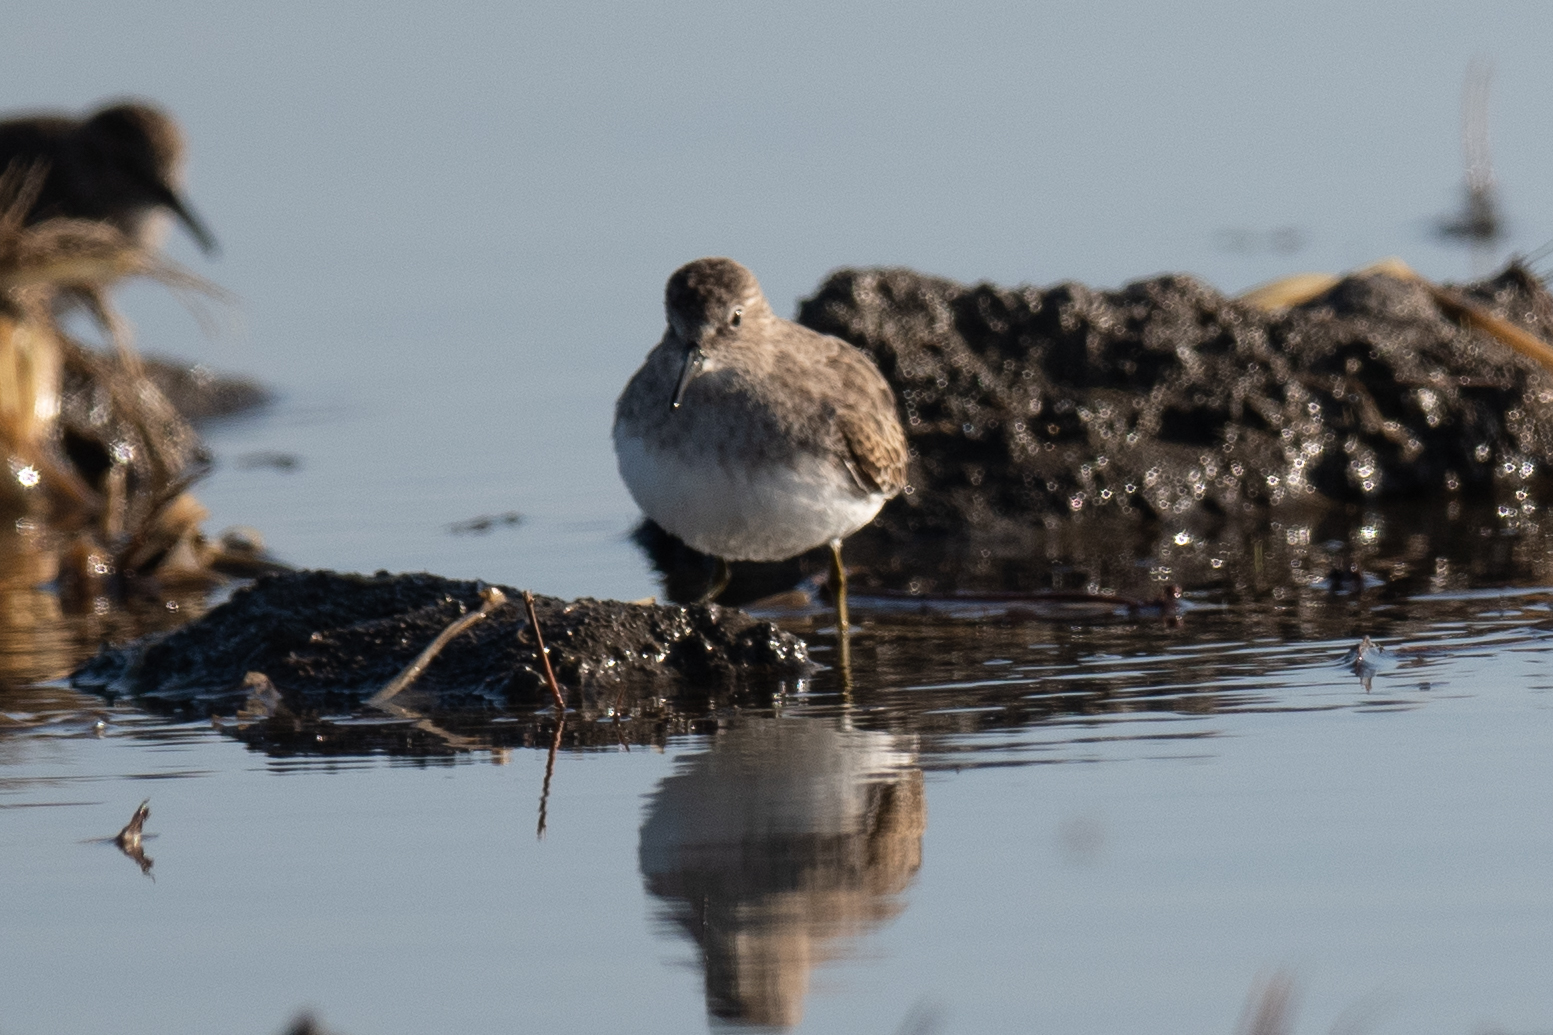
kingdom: Animalia
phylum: Chordata
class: Aves
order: Charadriiformes
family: Scolopacidae
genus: Calidris
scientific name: Calidris minutilla
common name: Least sandpiper
